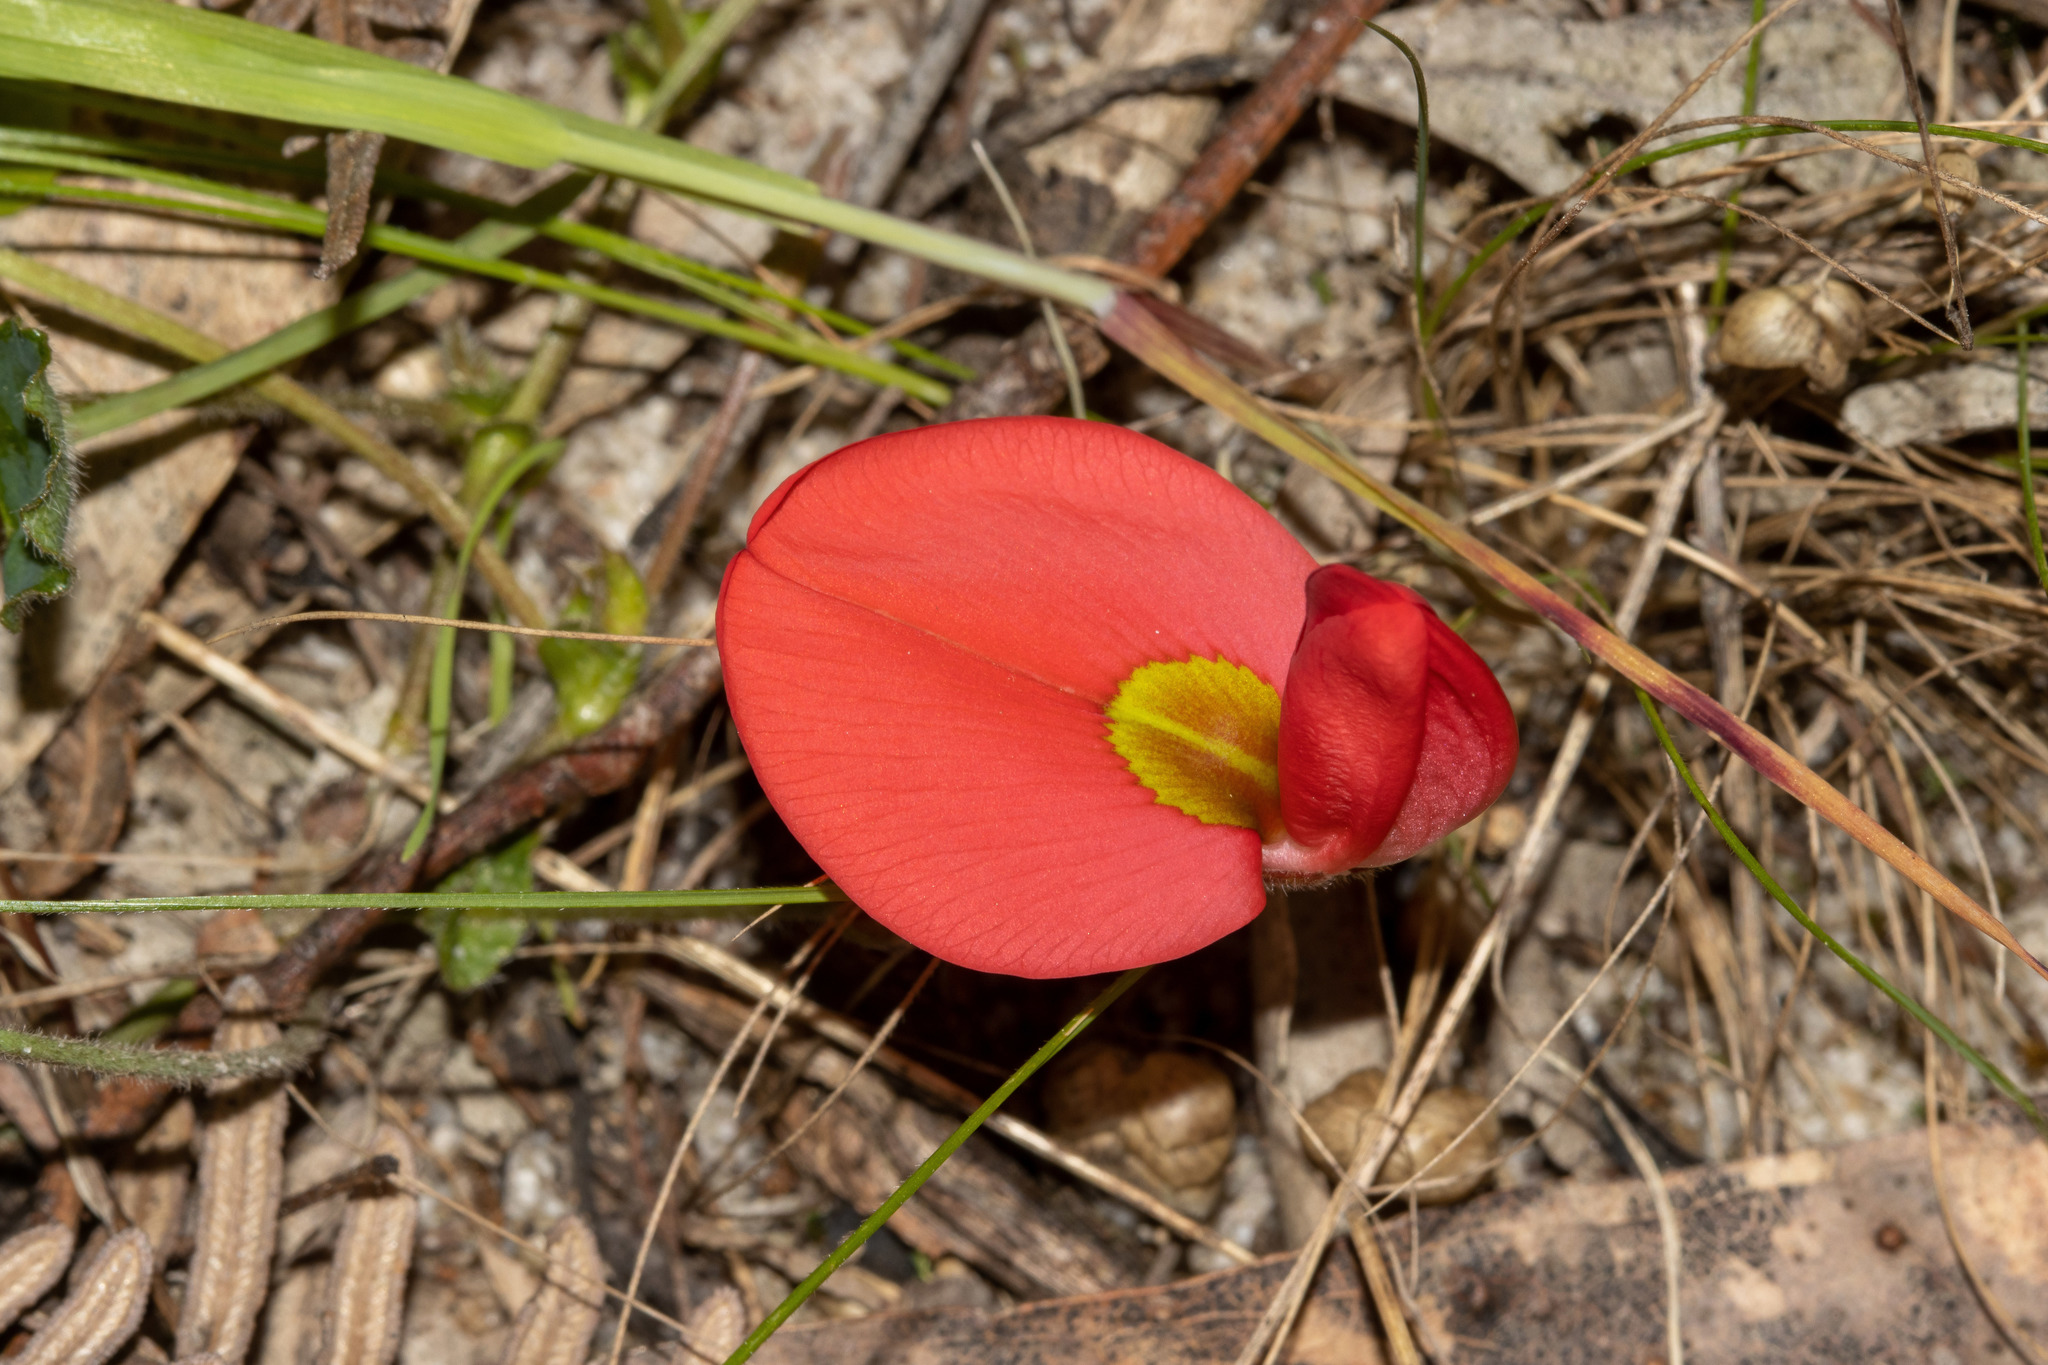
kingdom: Plantae
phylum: Tracheophyta
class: Magnoliopsida
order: Fabales
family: Fabaceae
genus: Kennedia
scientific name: Kennedia prostrata
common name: Running-postman
